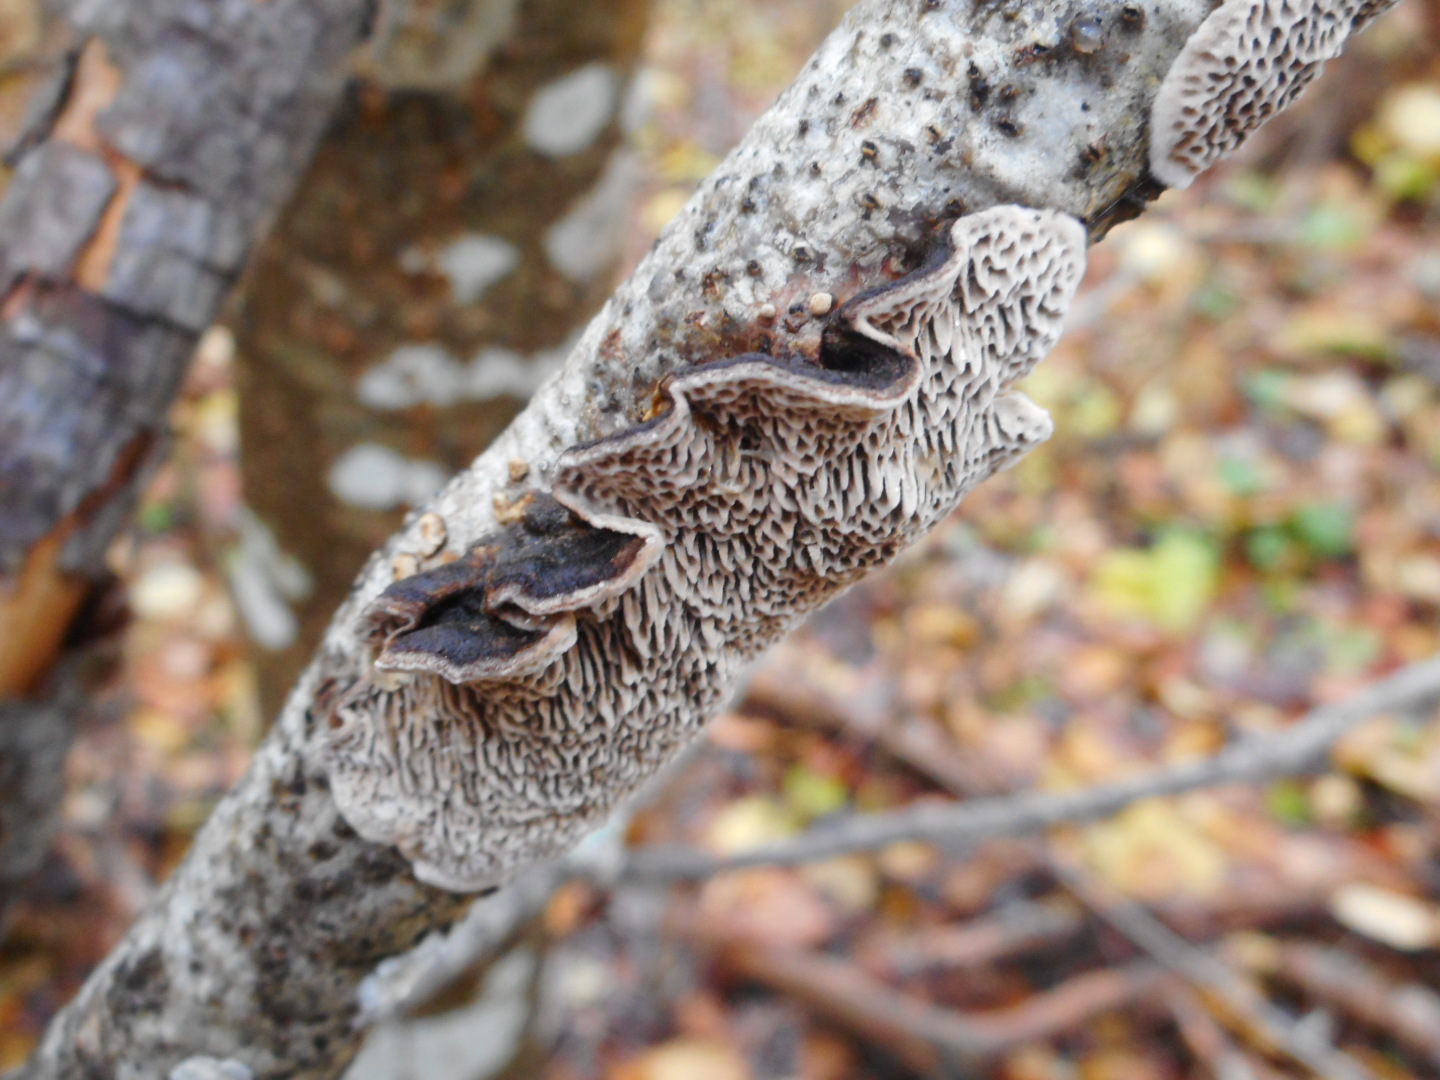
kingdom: Fungi
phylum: Basidiomycota
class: Agaricomycetes
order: Polyporales
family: Polyporaceae
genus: Podofomes
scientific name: Podofomes mollis
